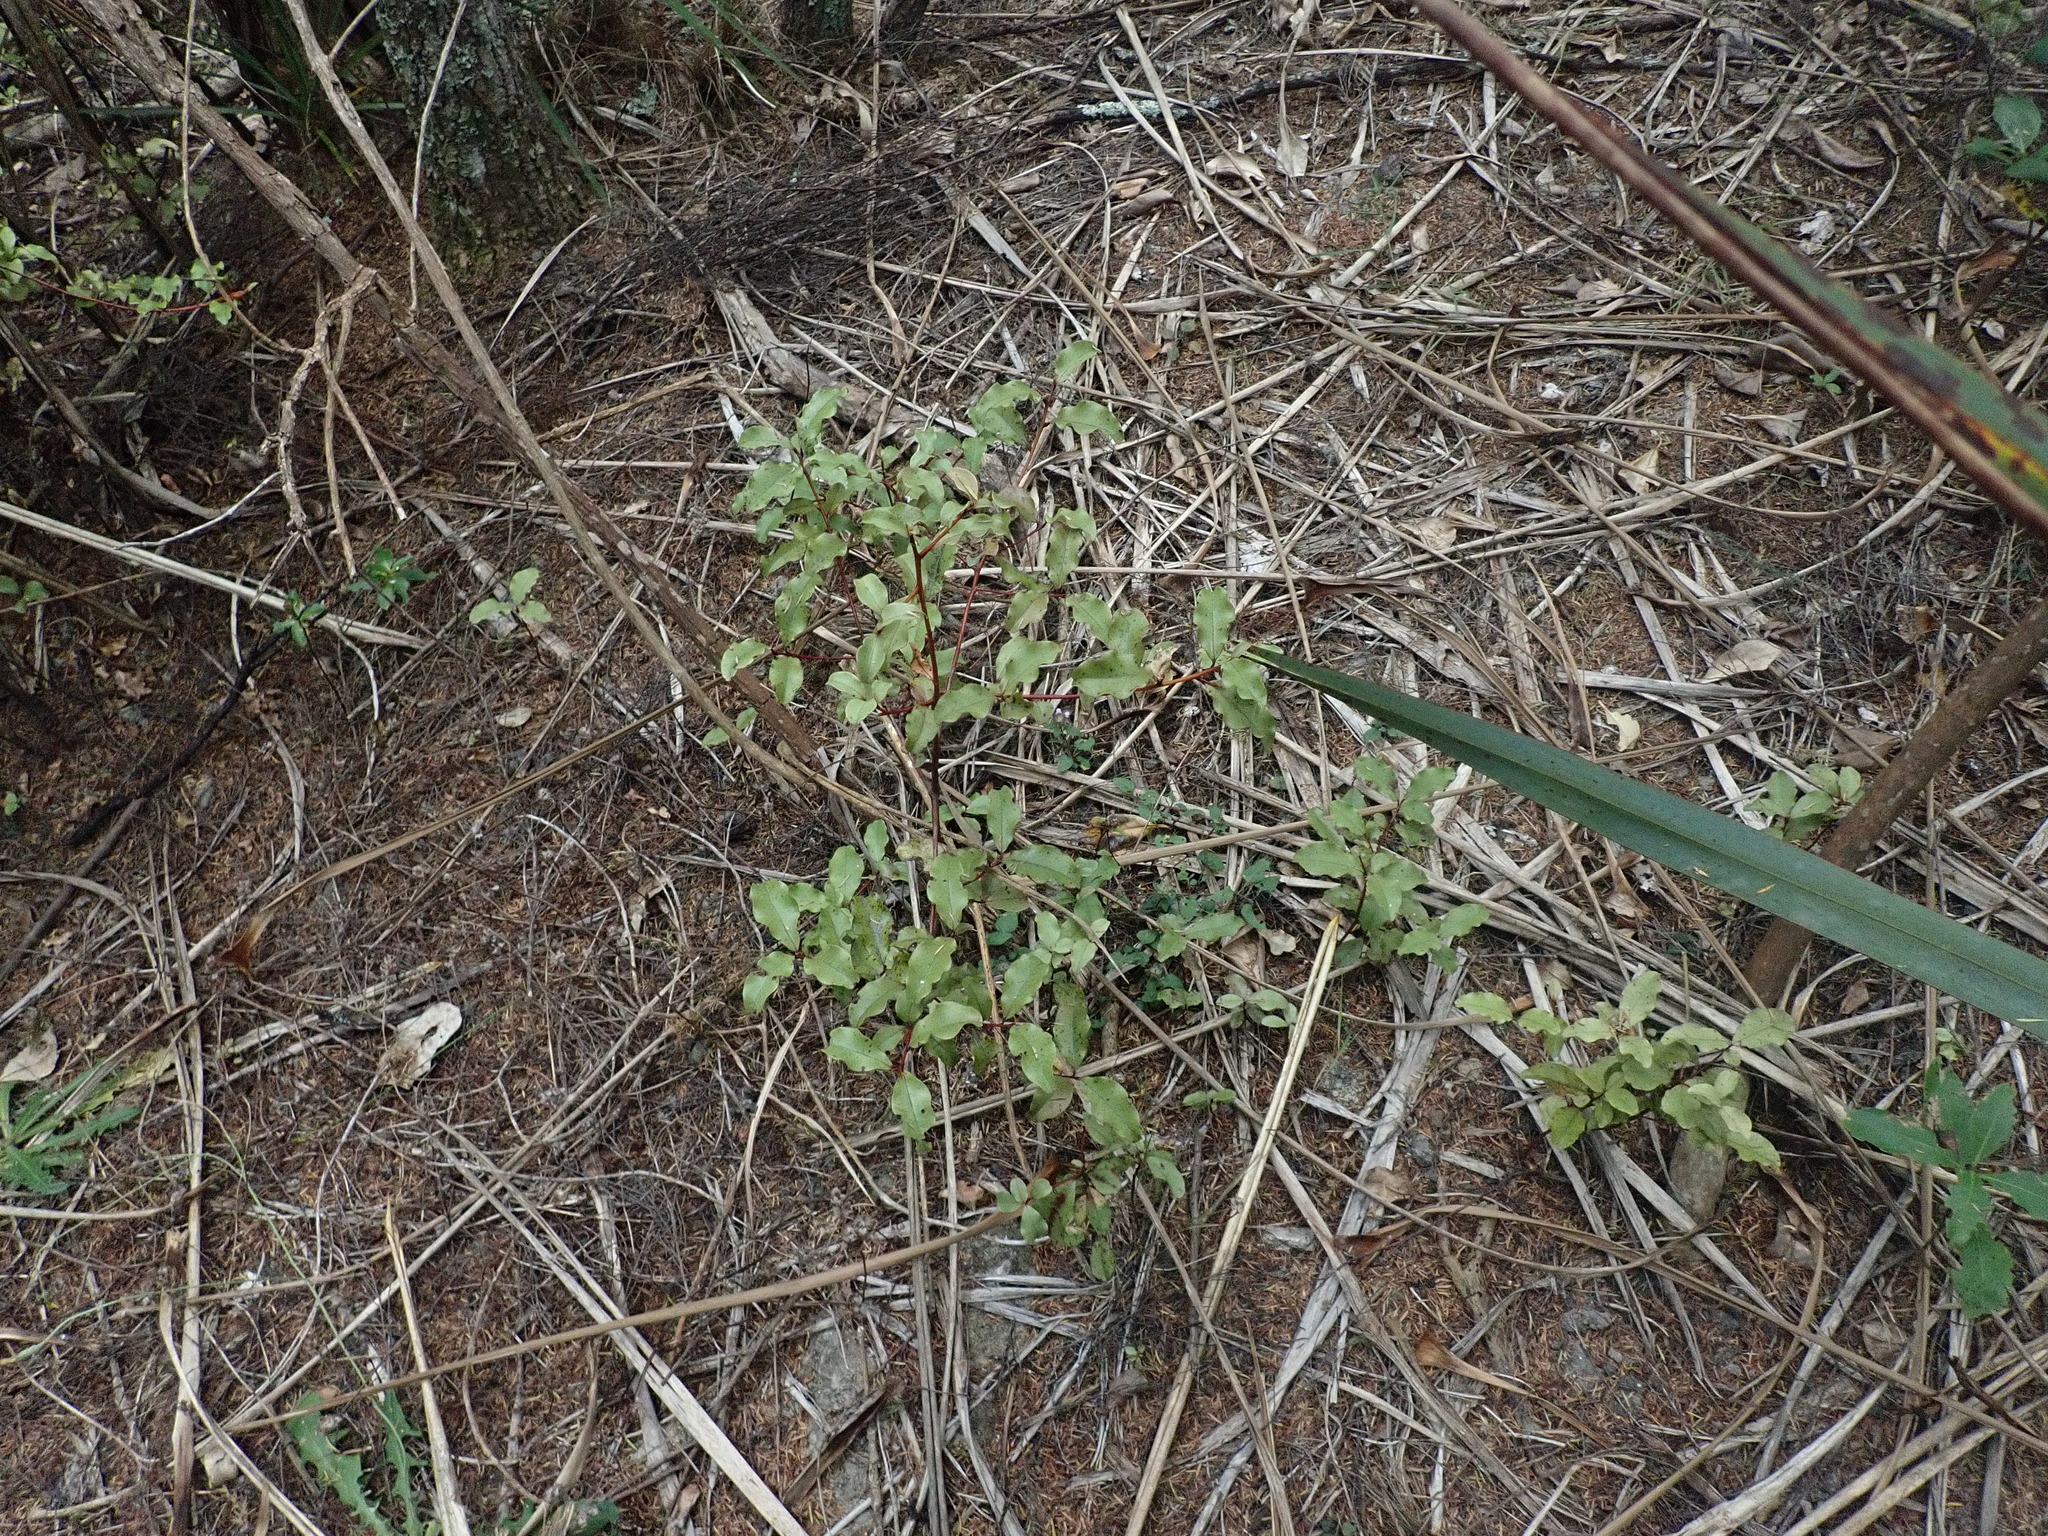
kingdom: Plantae
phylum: Tracheophyta
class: Magnoliopsida
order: Ericales
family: Primulaceae
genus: Myrsine
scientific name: Myrsine australis
